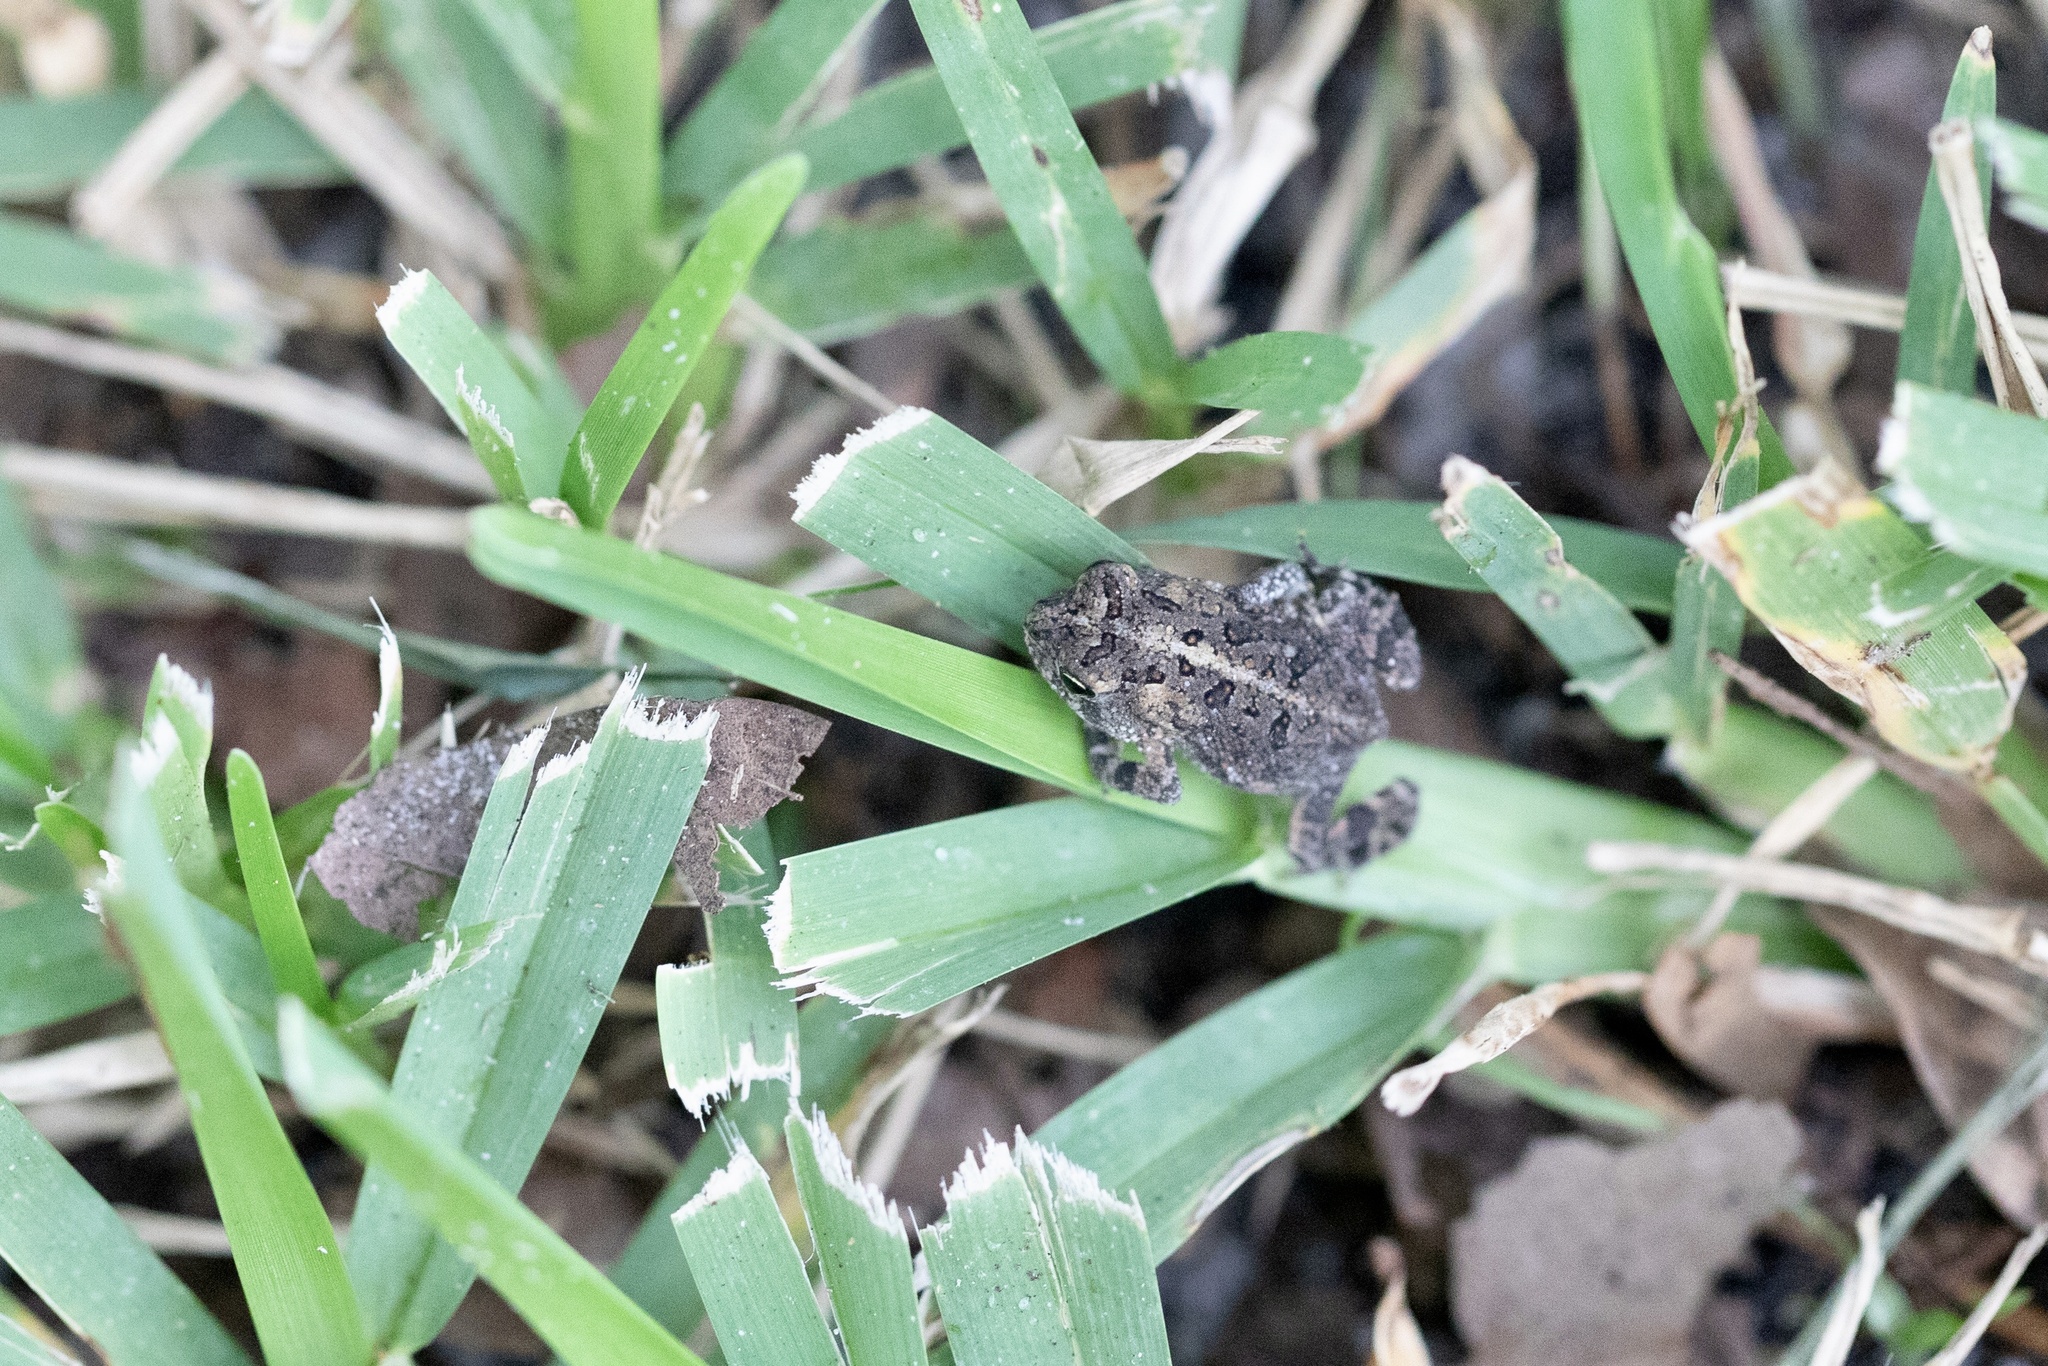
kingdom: Animalia
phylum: Chordata
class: Amphibia
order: Anura
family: Bufonidae
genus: Anaxyrus
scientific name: Anaxyrus terrestris
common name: Southern toad
